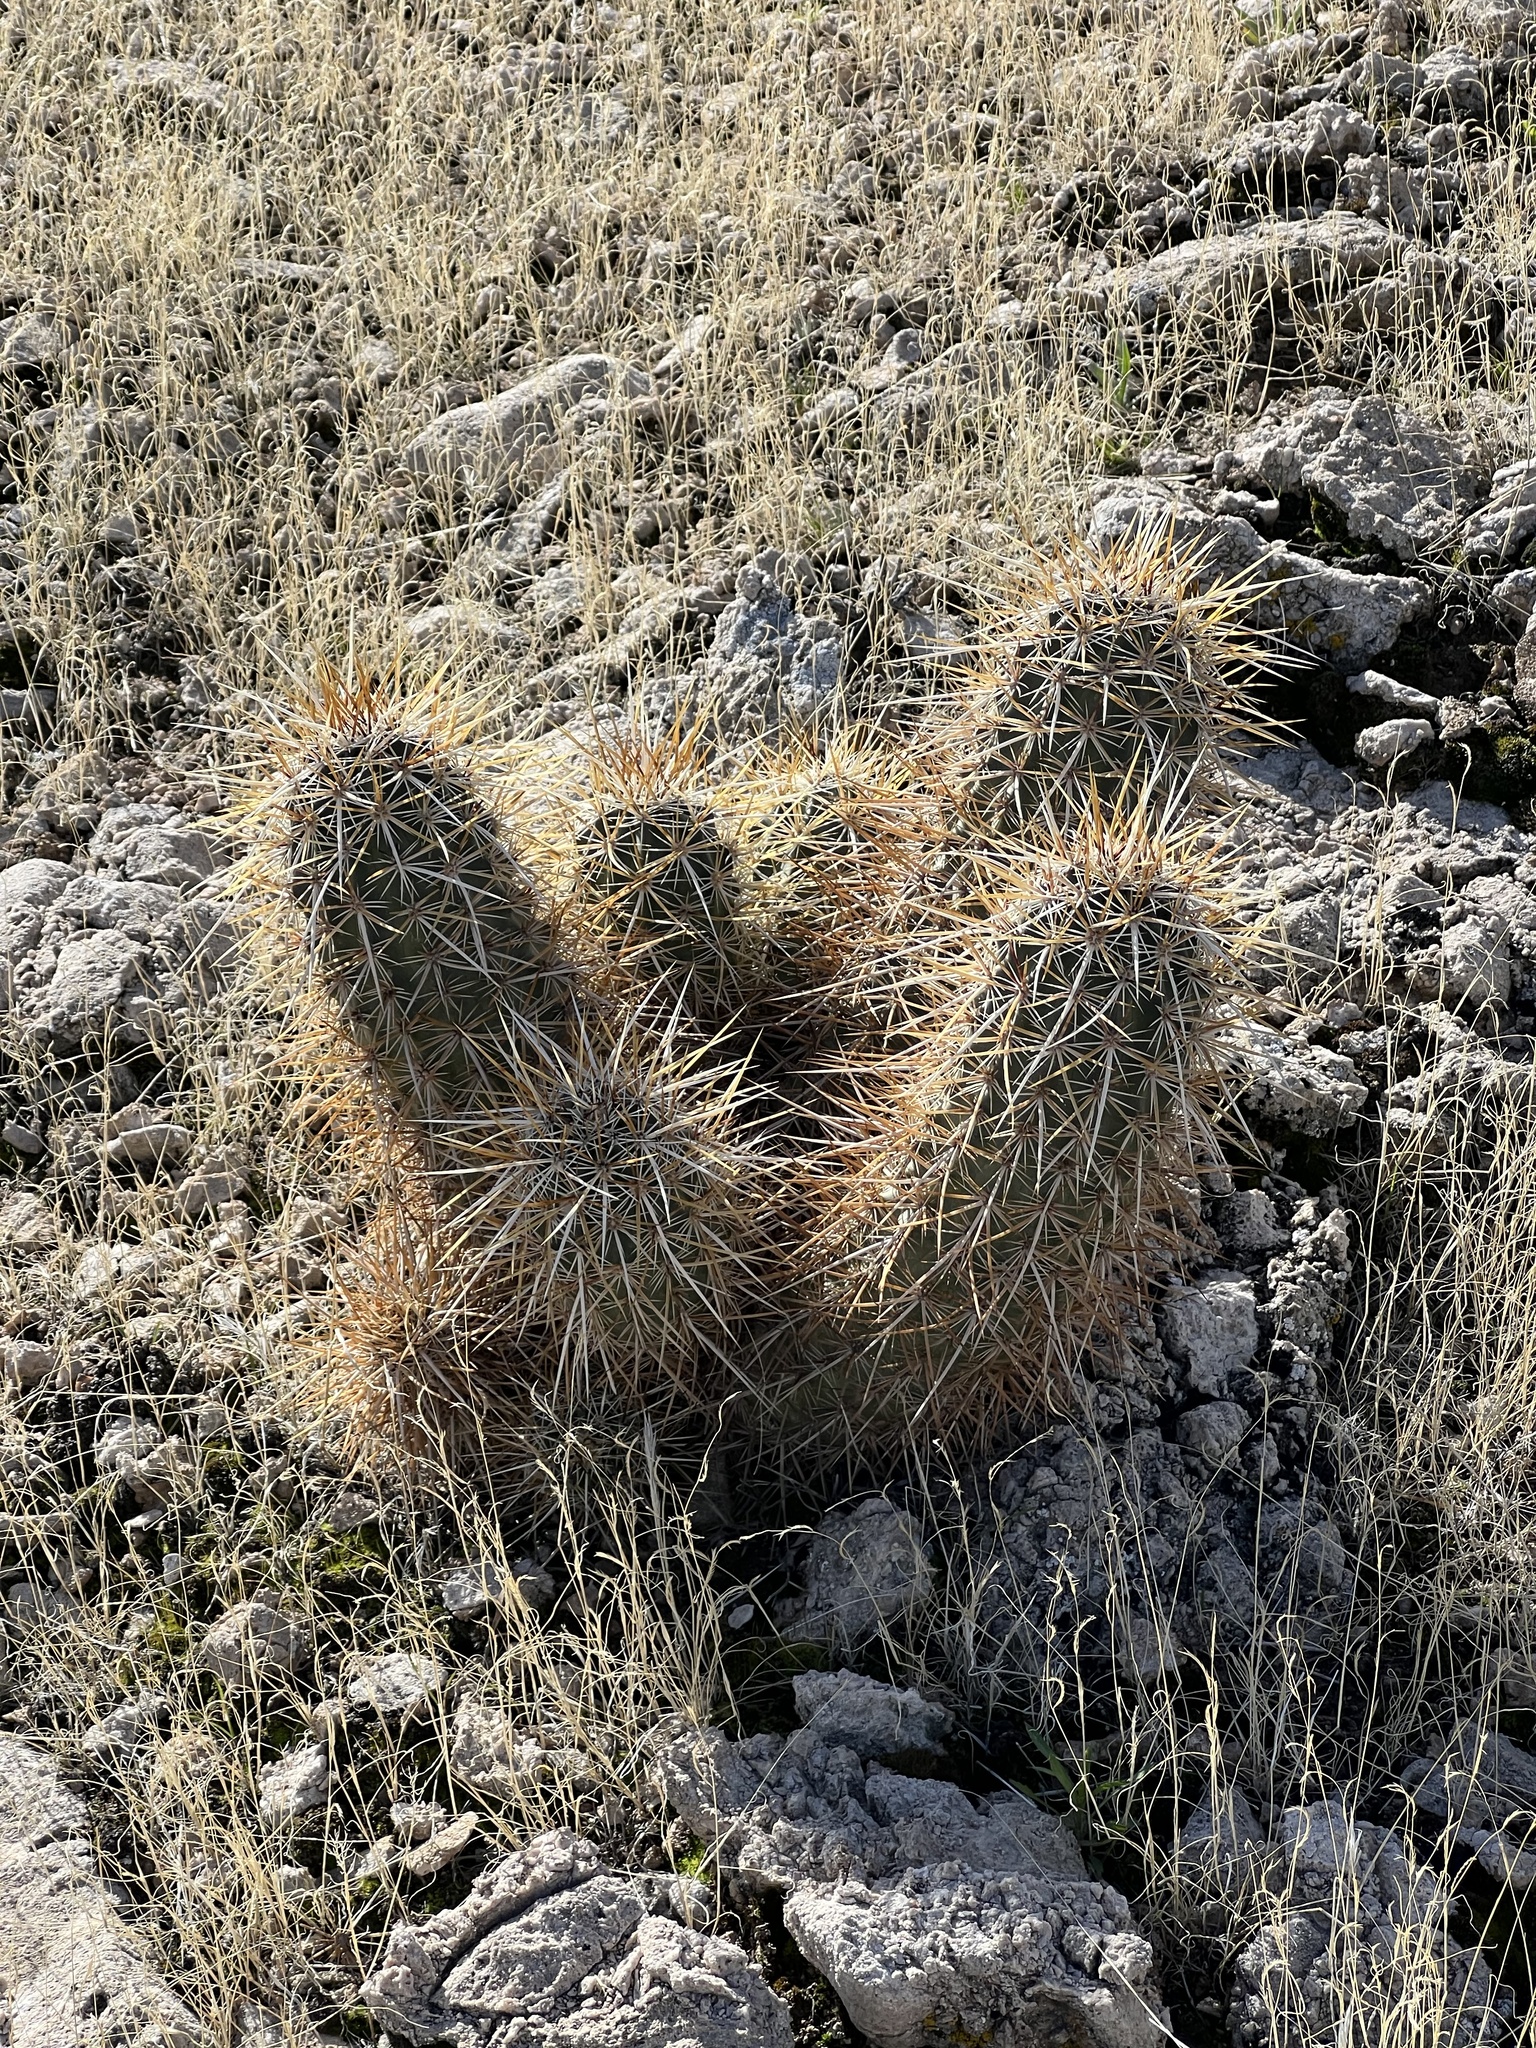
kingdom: Plantae
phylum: Tracheophyta
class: Magnoliopsida
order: Caryophyllales
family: Cactaceae
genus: Echinocereus
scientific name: Echinocereus engelmannii
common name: Engelmann's hedgehog cactus
